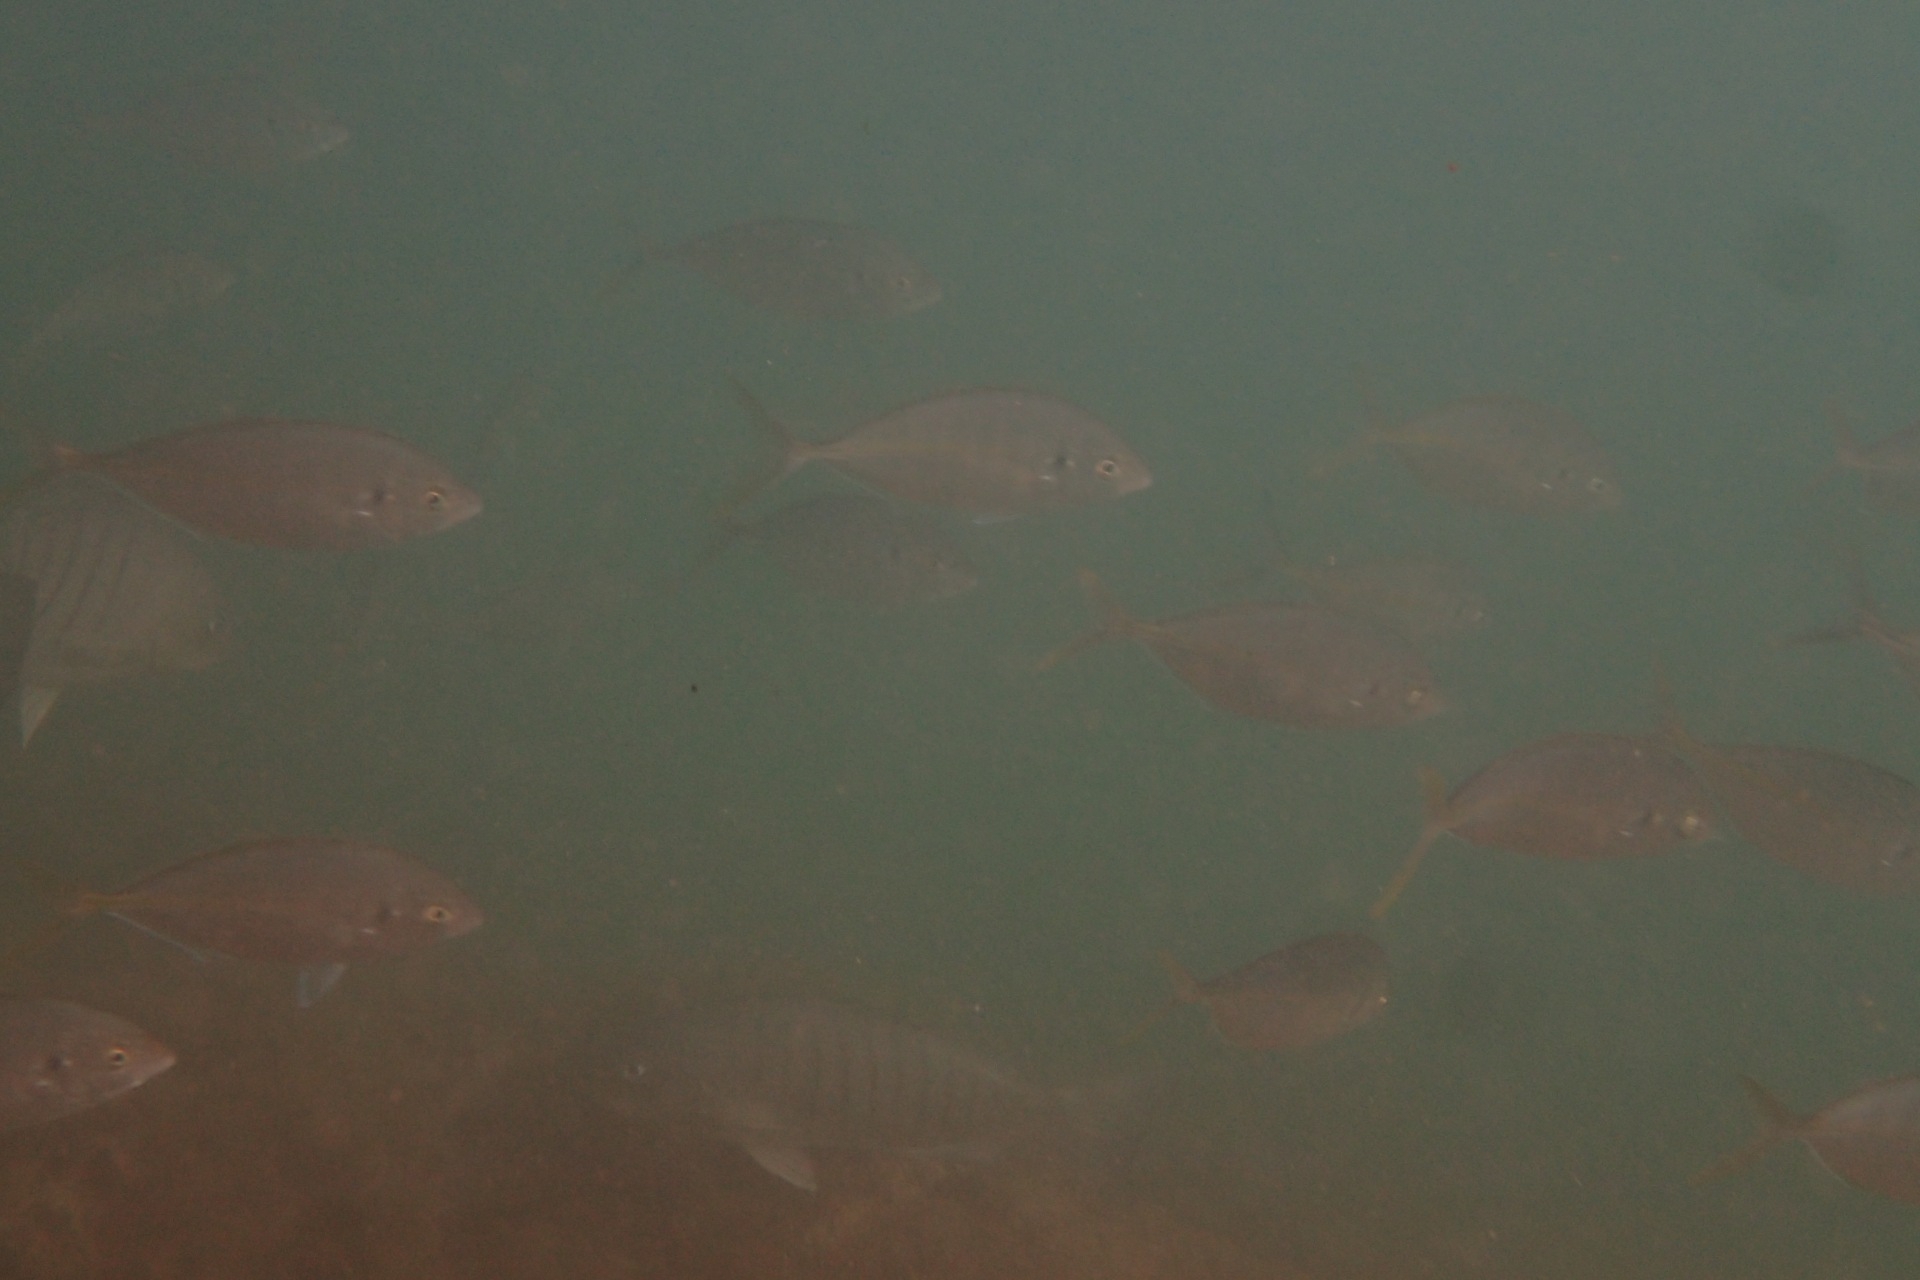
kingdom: Animalia
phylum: Chordata
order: Perciformes
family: Carangidae
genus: Pseudocaranx
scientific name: Pseudocaranx dentex
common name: White trevally
